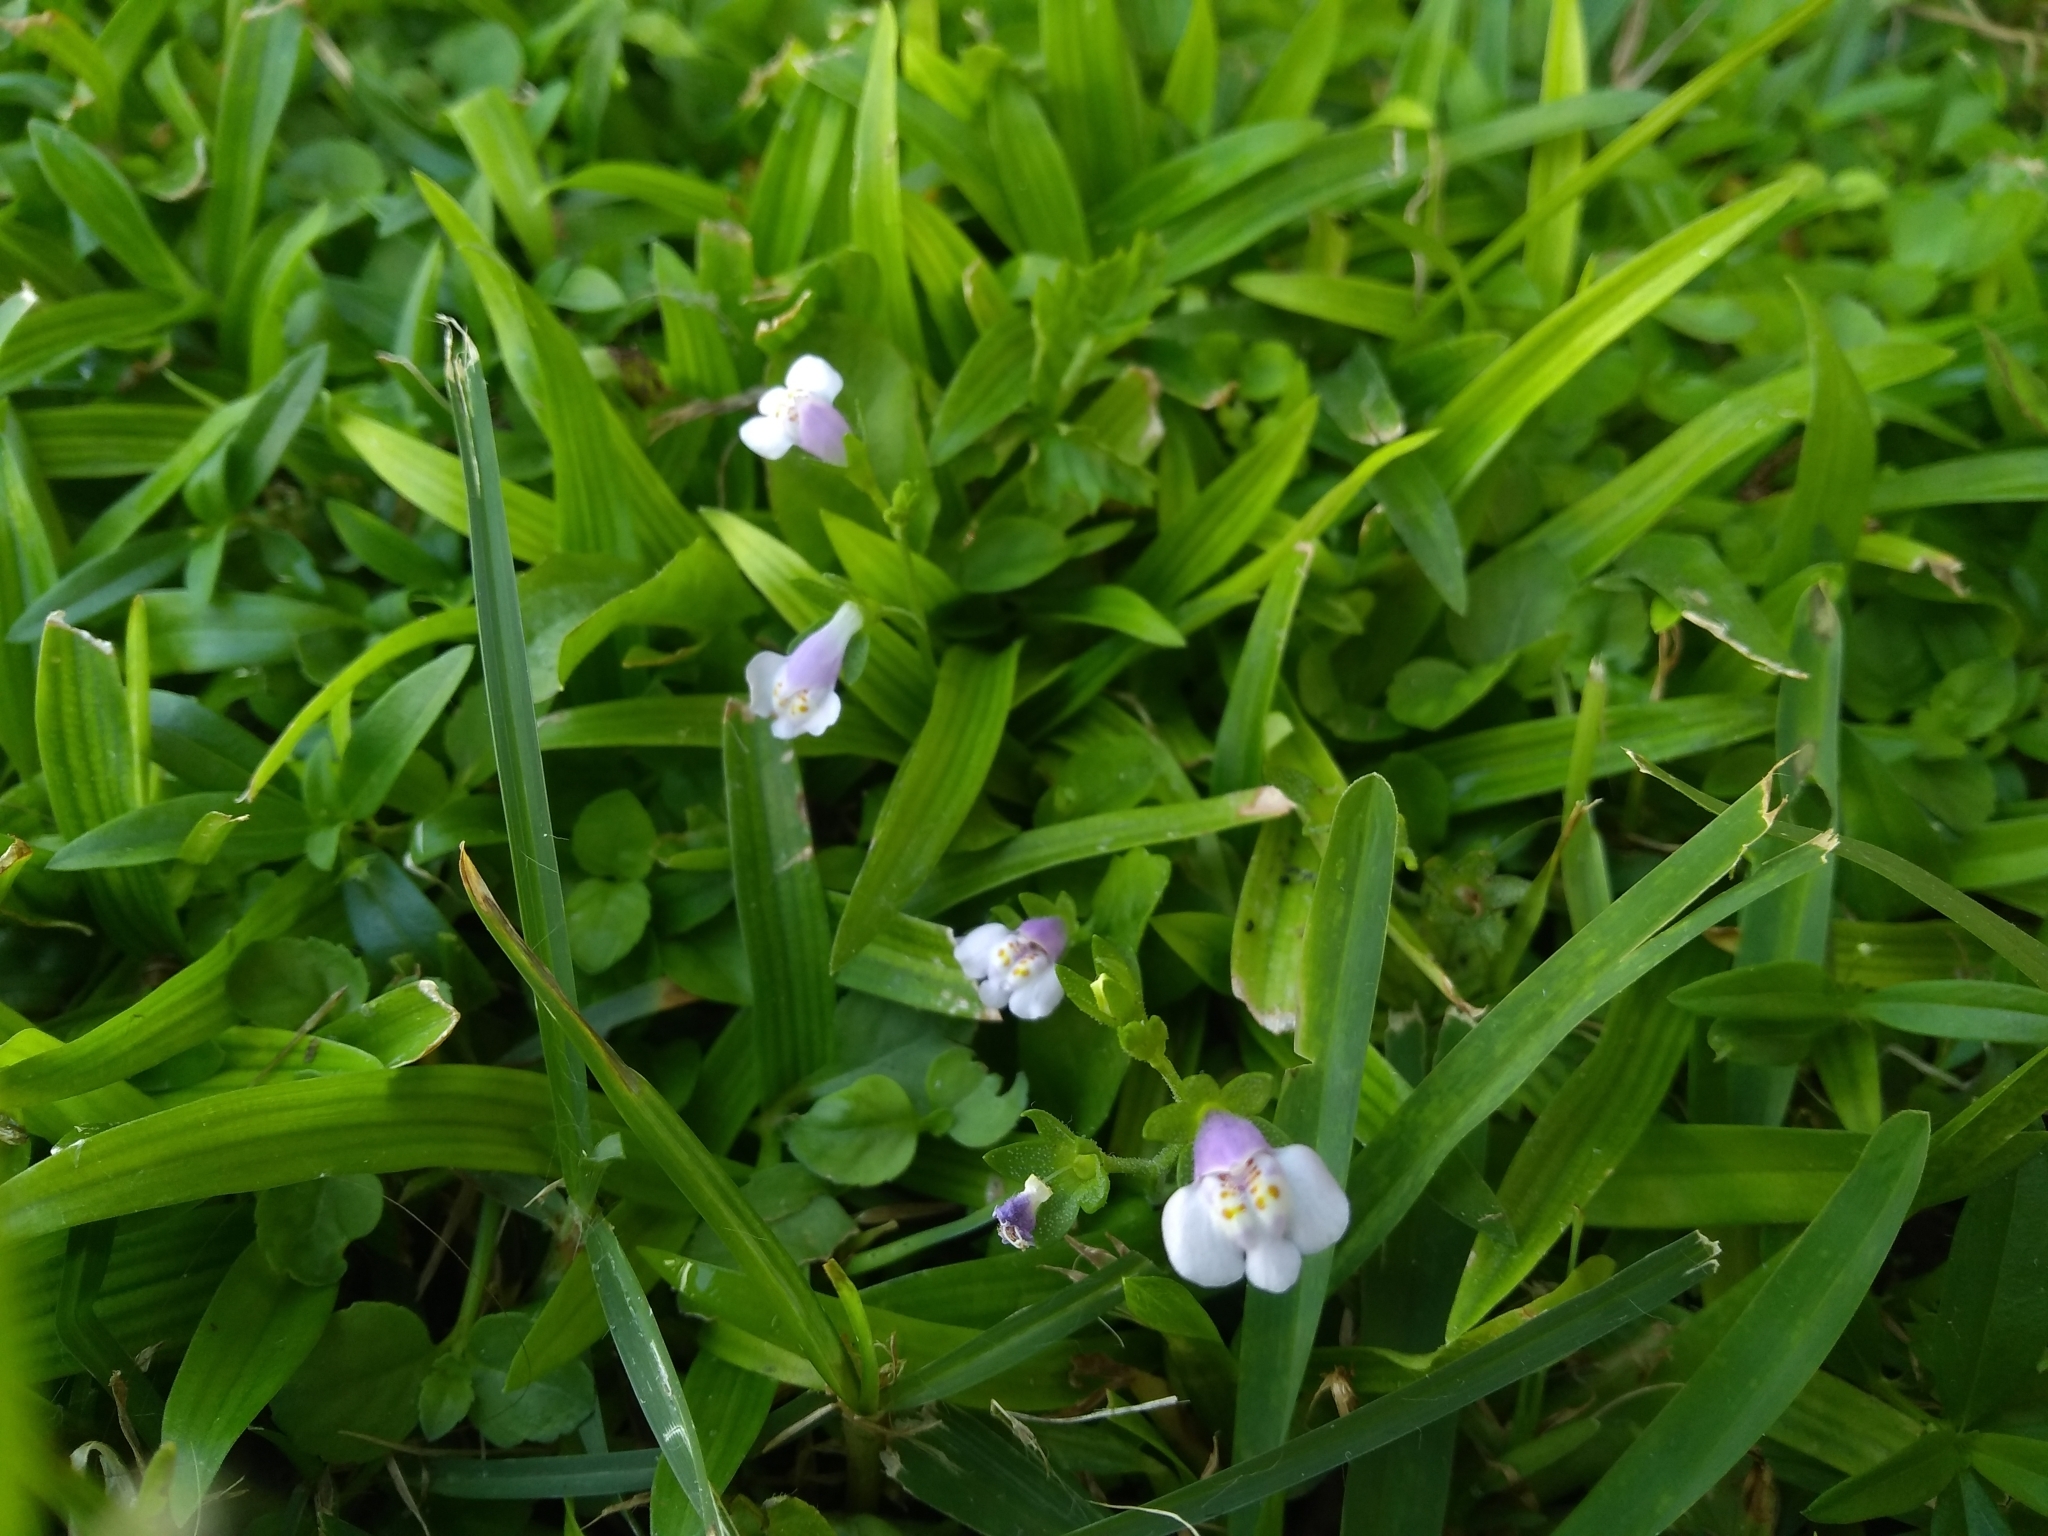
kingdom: Plantae
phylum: Tracheophyta
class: Magnoliopsida
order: Lamiales
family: Mazaceae
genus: Mazus
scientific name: Mazus pumilus
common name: Japanese mazus
